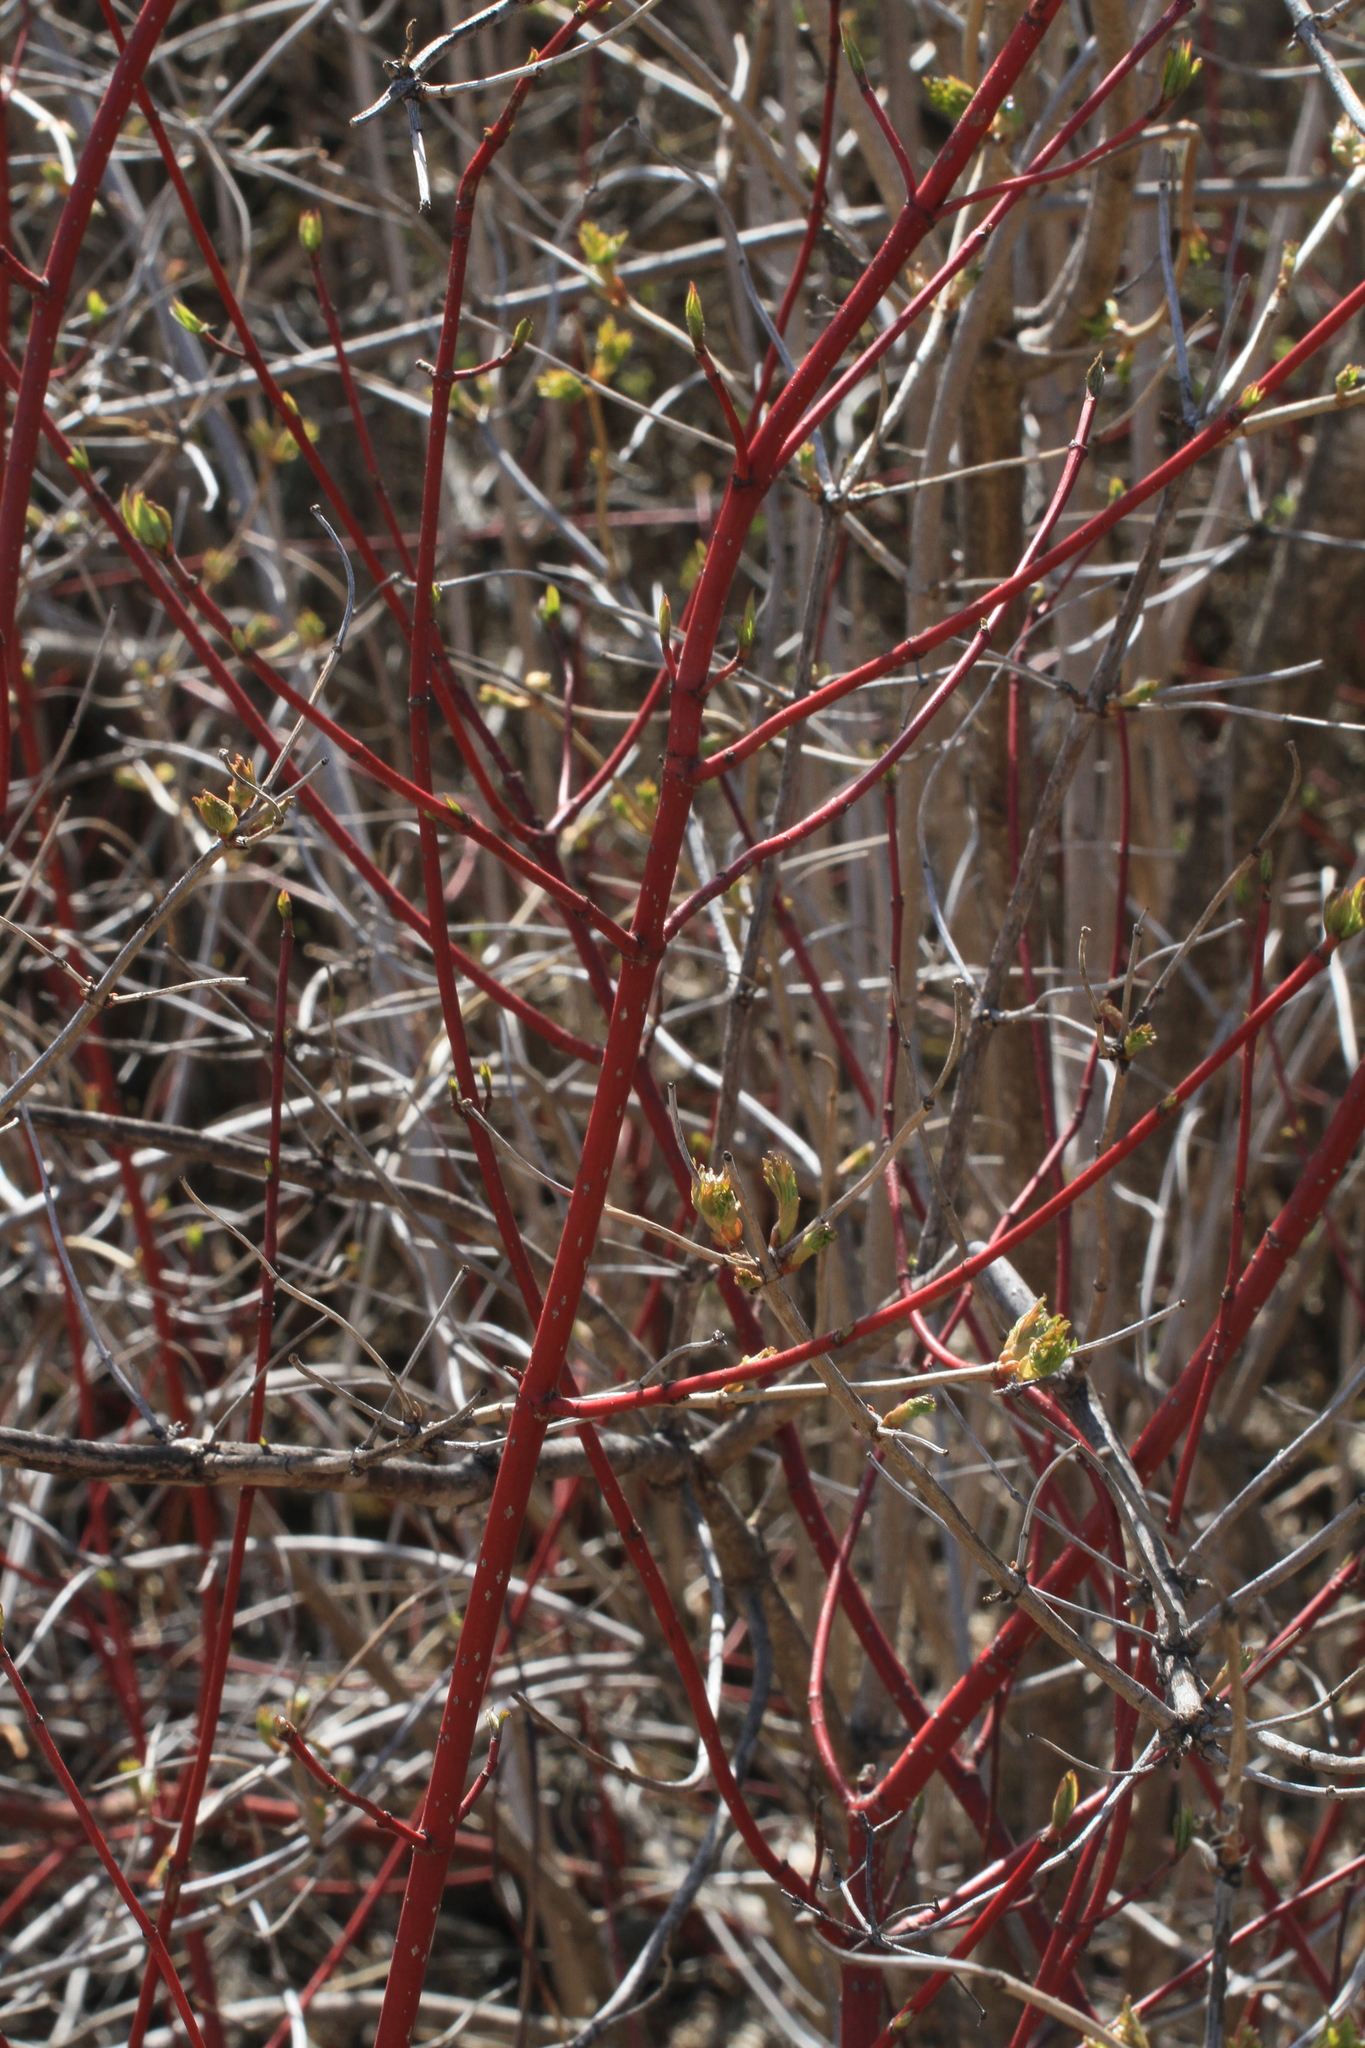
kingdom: Plantae
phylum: Tracheophyta
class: Magnoliopsida
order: Cornales
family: Cornaceae
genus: Cornus
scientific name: Cornus alba
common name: White dogwood
